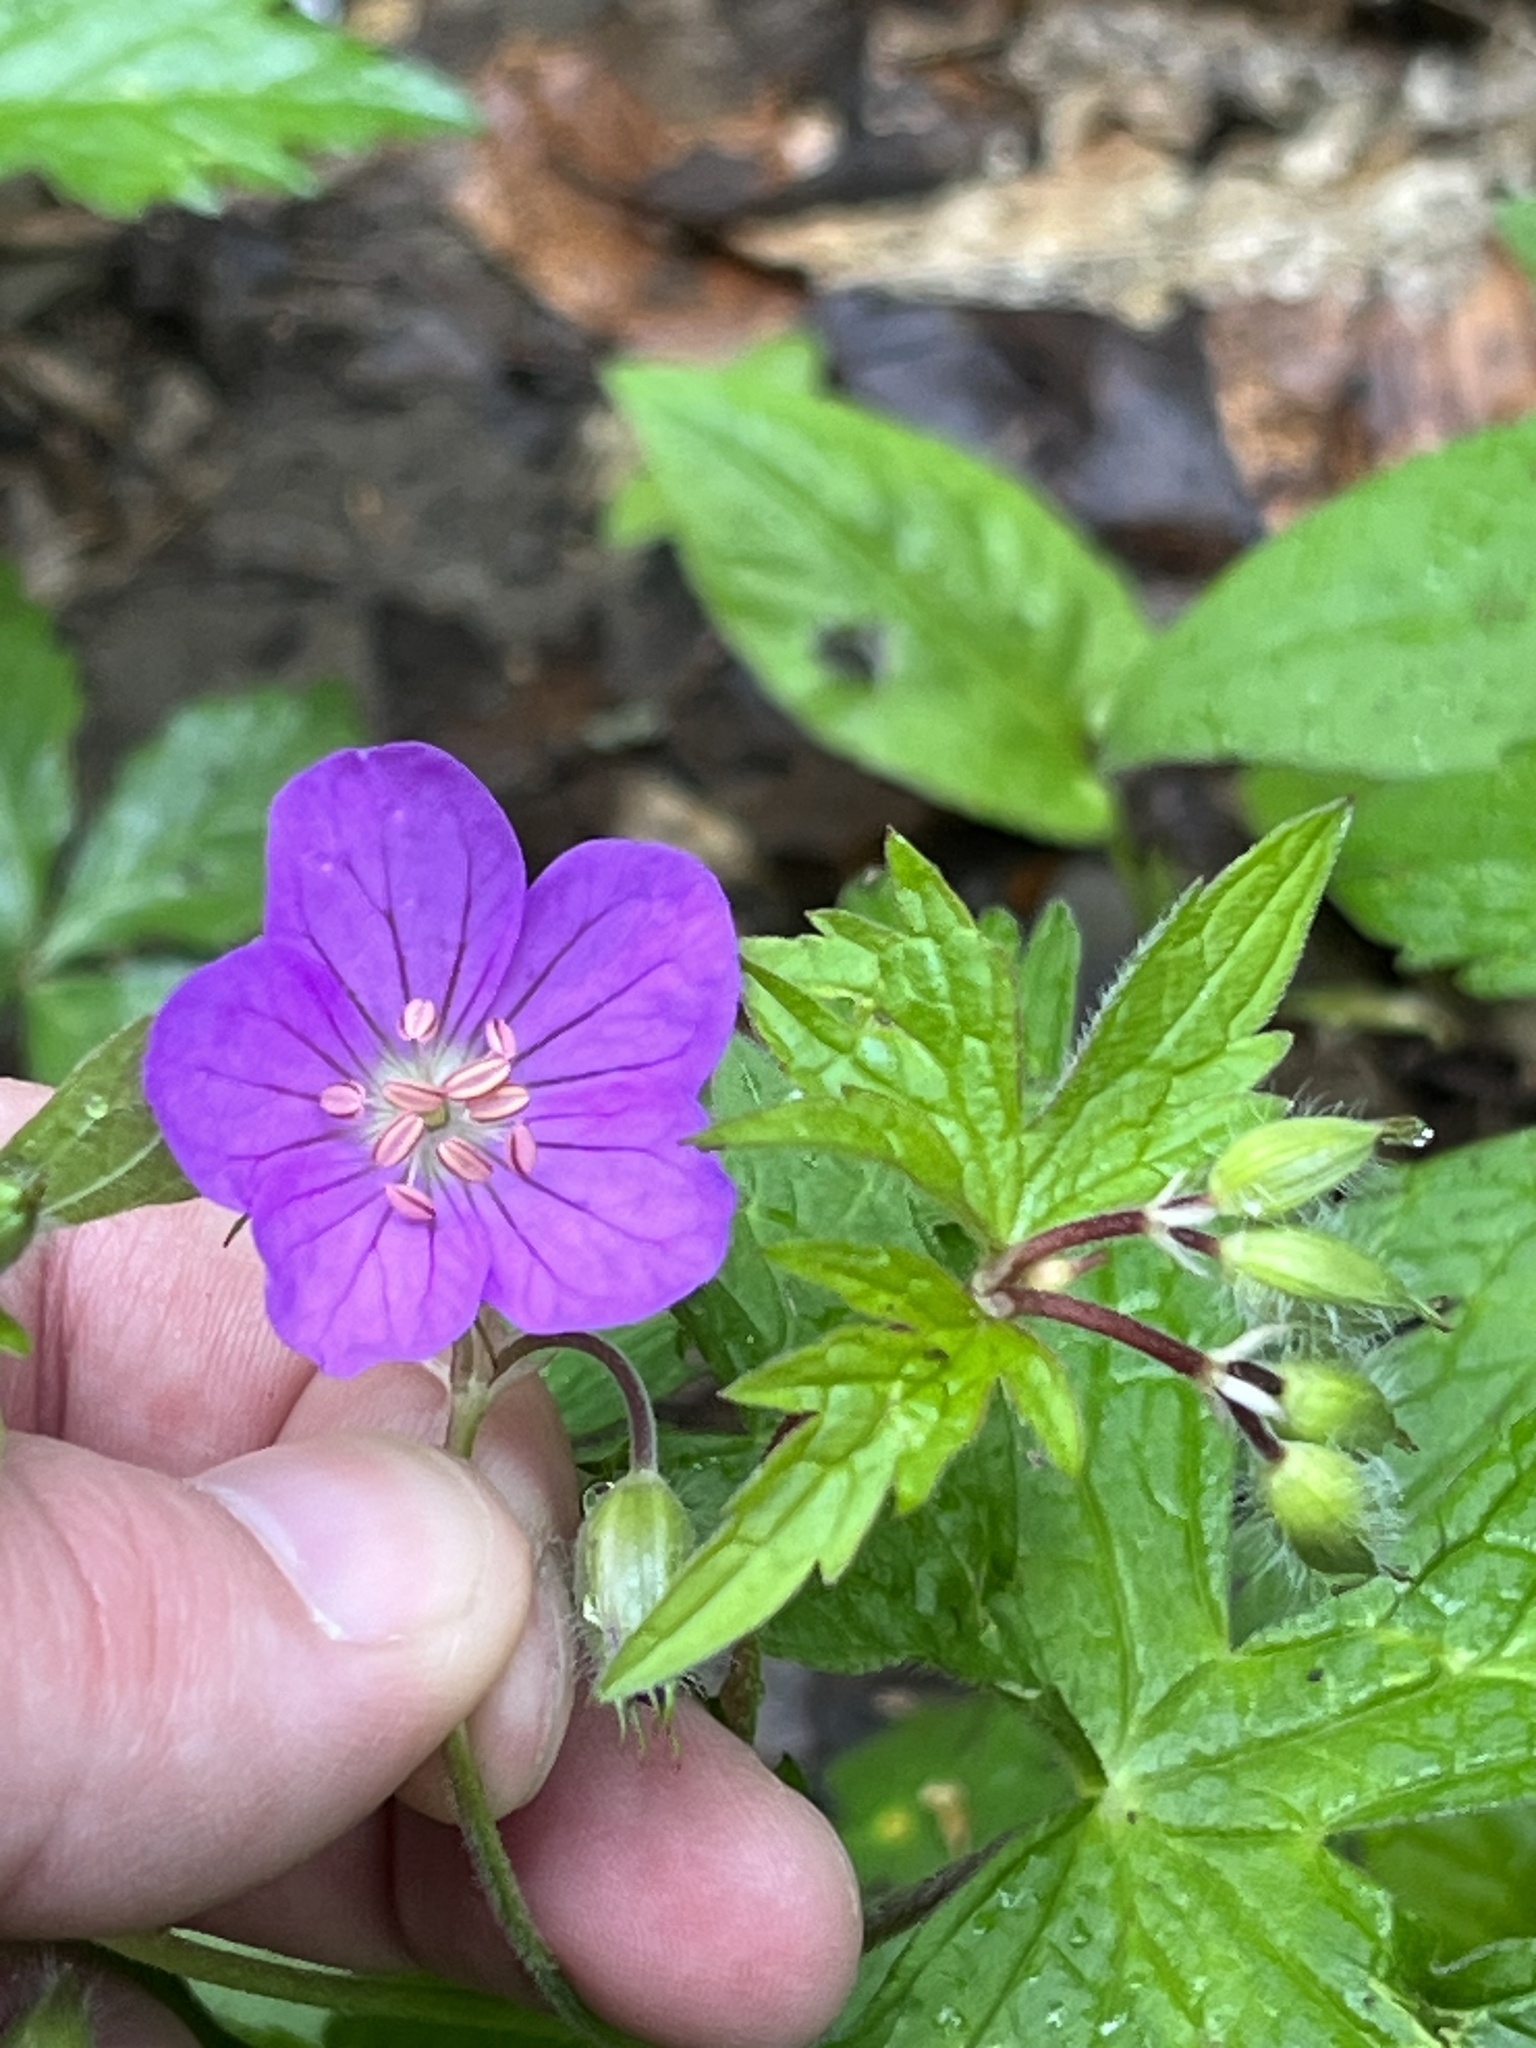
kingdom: Plantae
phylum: Tracheophyta
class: Magnoliopsida
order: Geraniales
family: Geraniaceae
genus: Geranium
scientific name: Geranium maculatum
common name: Spotted geranium
